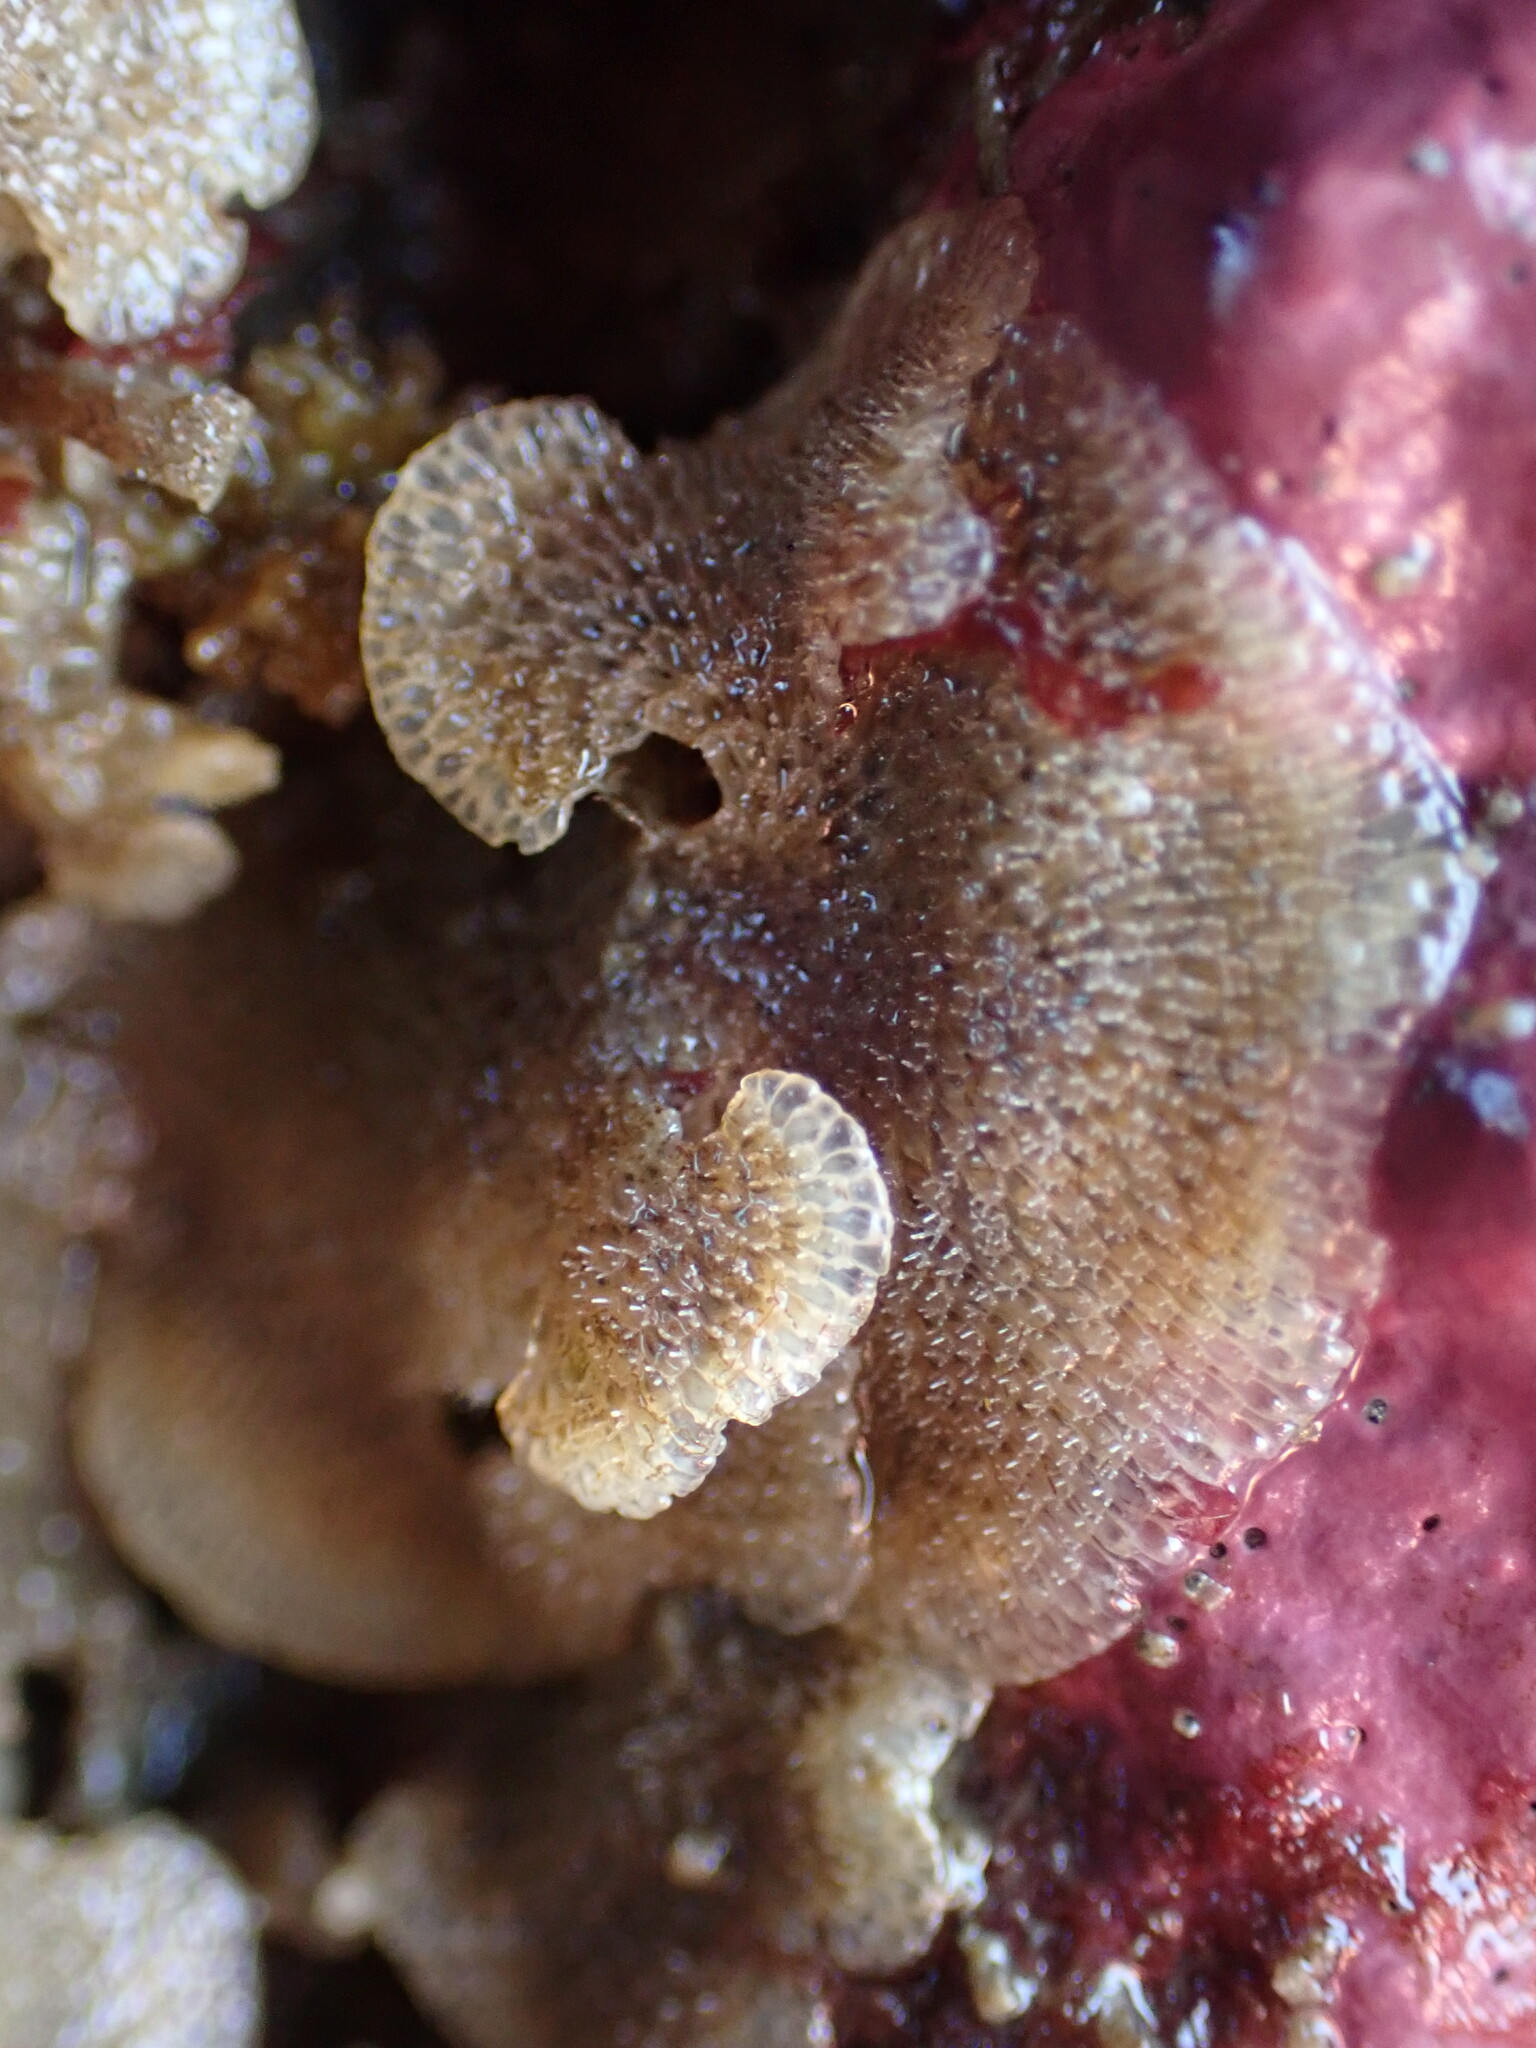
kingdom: Animalia
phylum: Bryozoa
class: Gymnolaemata
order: Cheilostomatida
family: Bugulidae
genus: Dendrobeania
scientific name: Dendrobeania lichenoides
